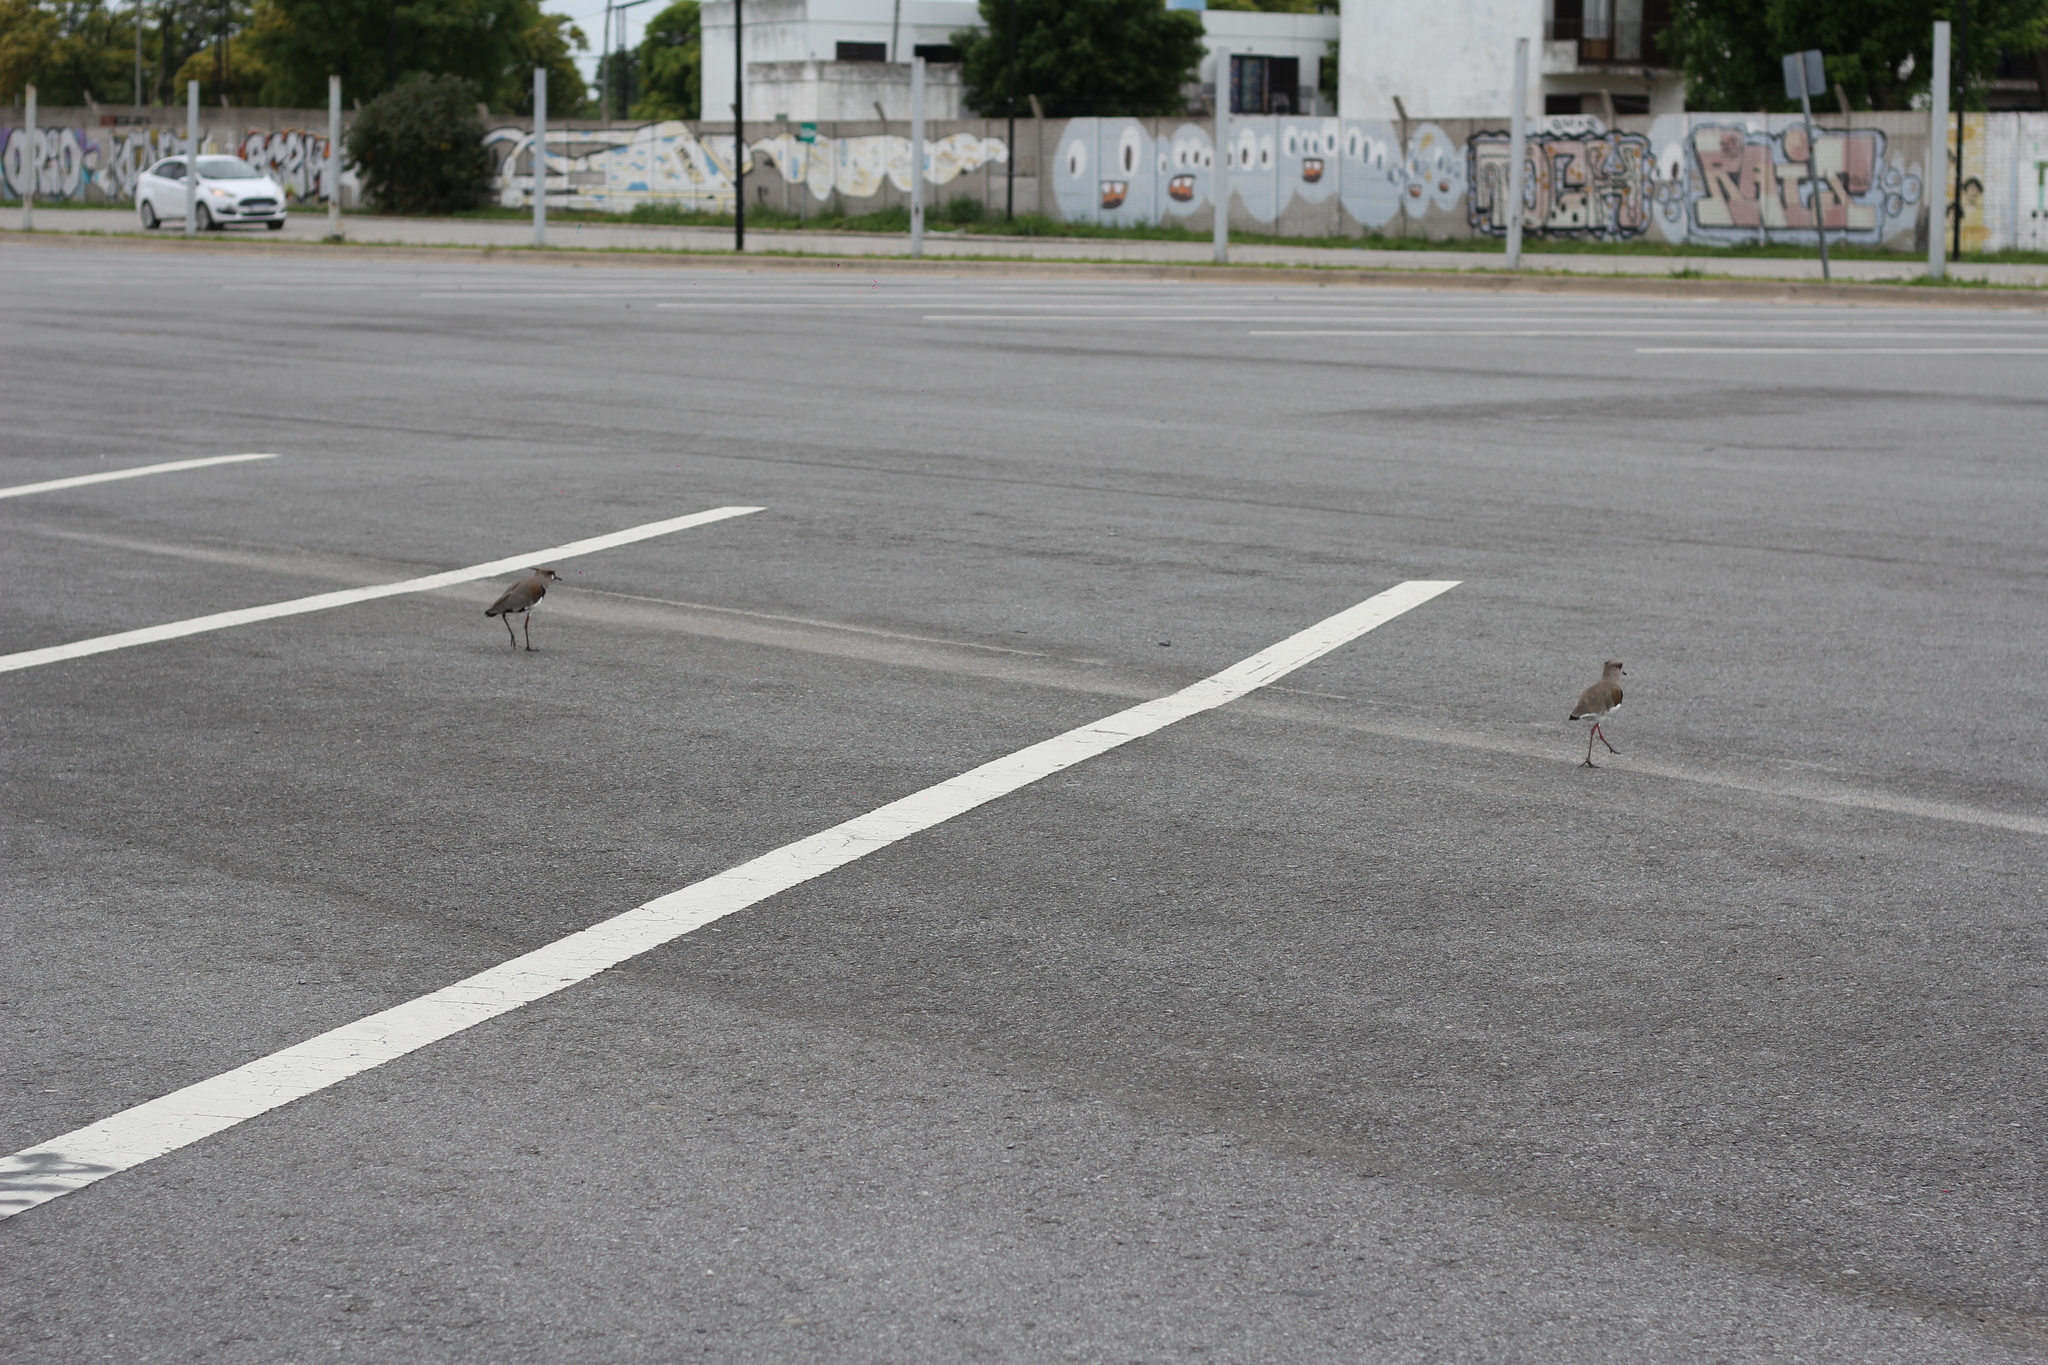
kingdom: Animalia
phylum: Chordata
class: Aves
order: Charadriiformes
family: Charadriidae
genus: Vanellus
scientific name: Vanellus chilensis
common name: Southern lapwing
